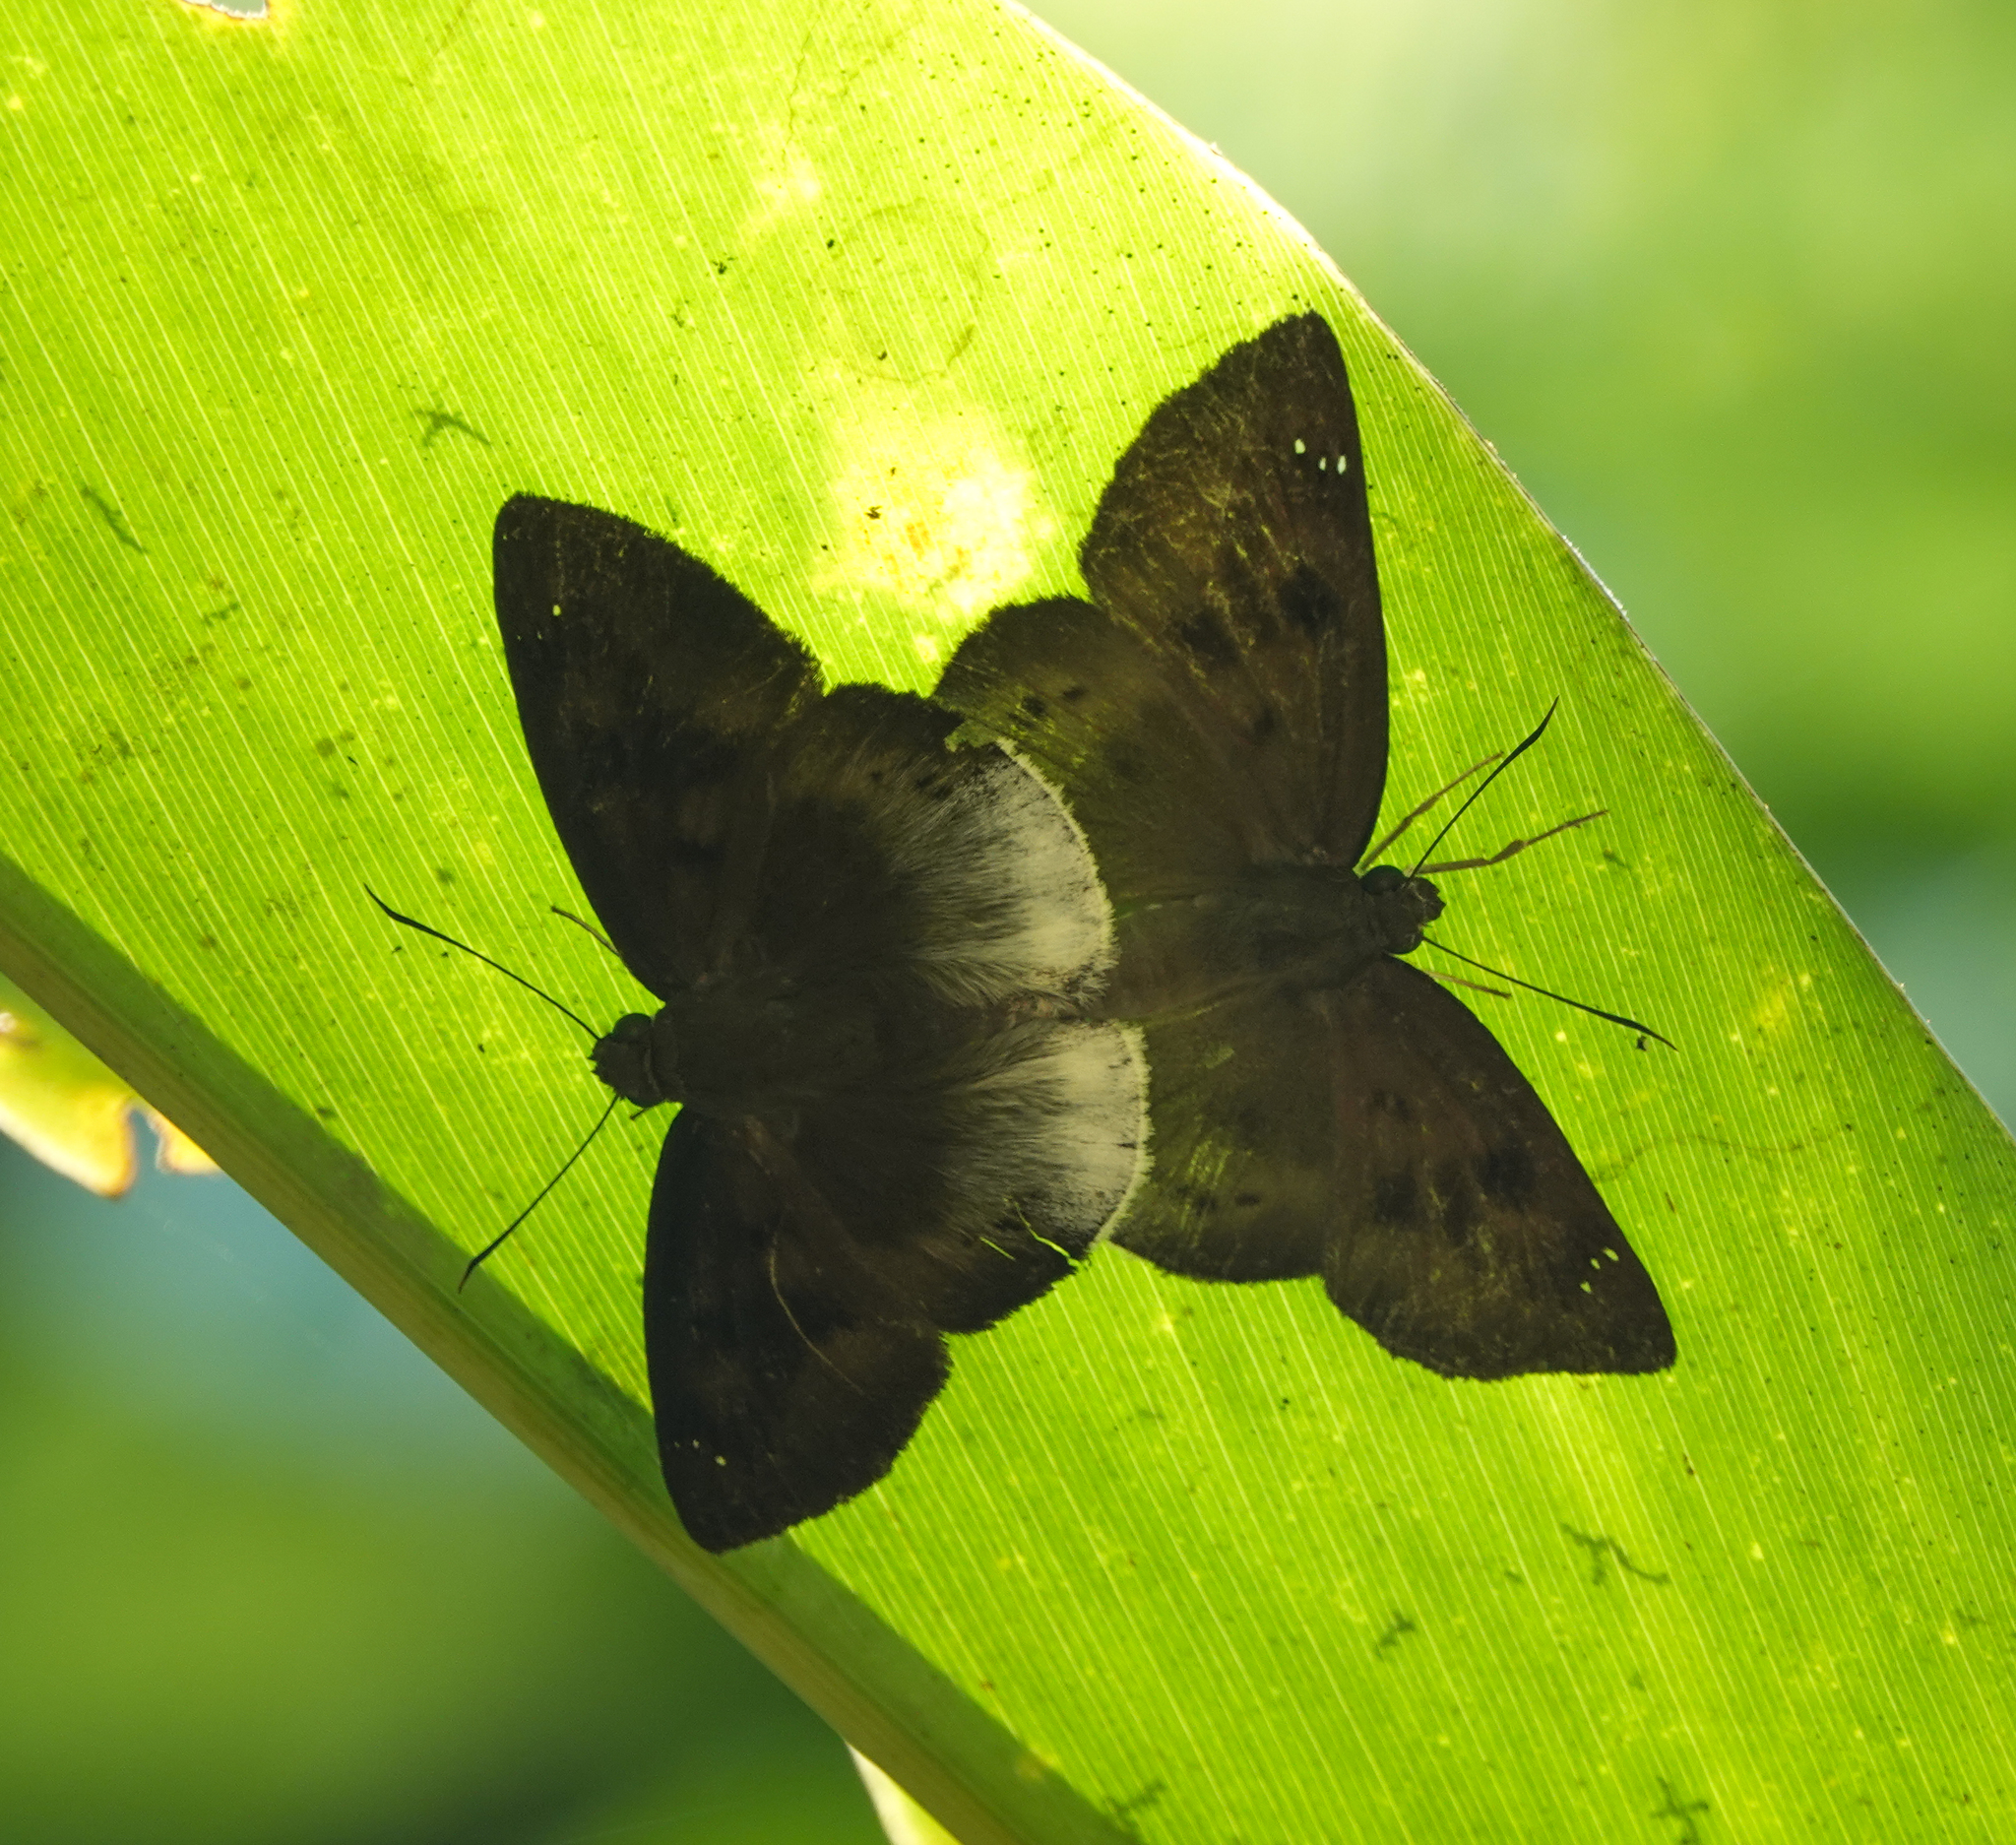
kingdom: Animalia
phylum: Arthropoda
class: Insecta
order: Lepidoptera
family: Hesperiidae
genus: Tagiades
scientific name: Tagiades gana
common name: Suffused snow flat
